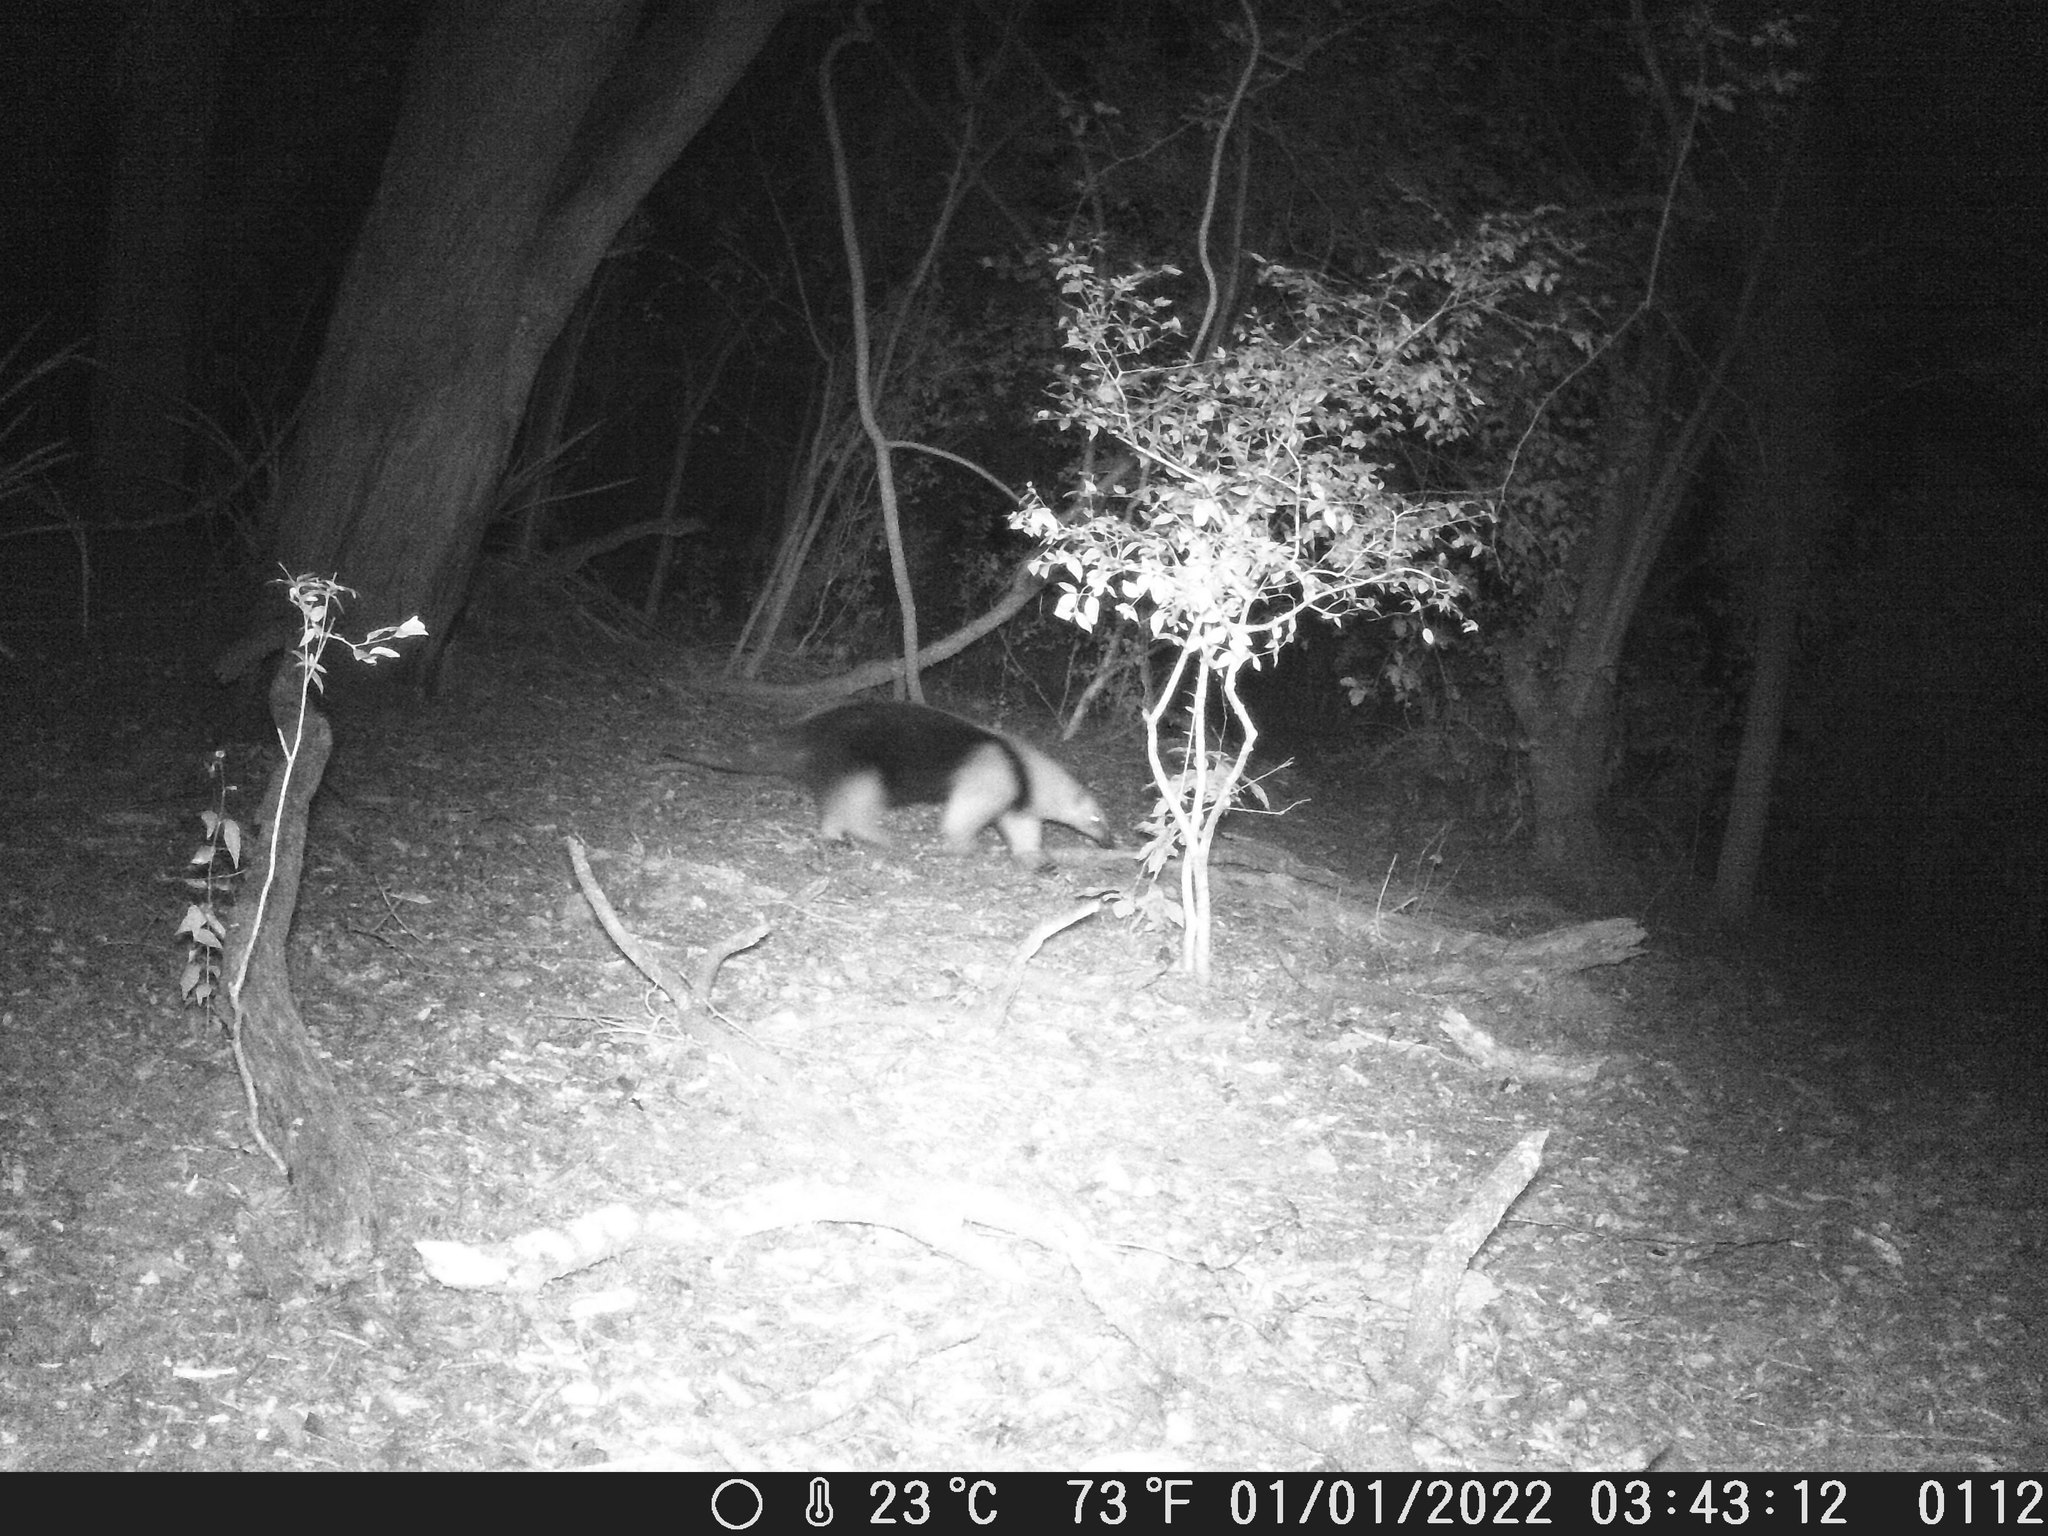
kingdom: Animalia
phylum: Chordata
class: Mammalia
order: Pilosa
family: Myrmecophagidae
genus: Tamandua
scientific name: Tamandua tetradactyla
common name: Southern tamandua
